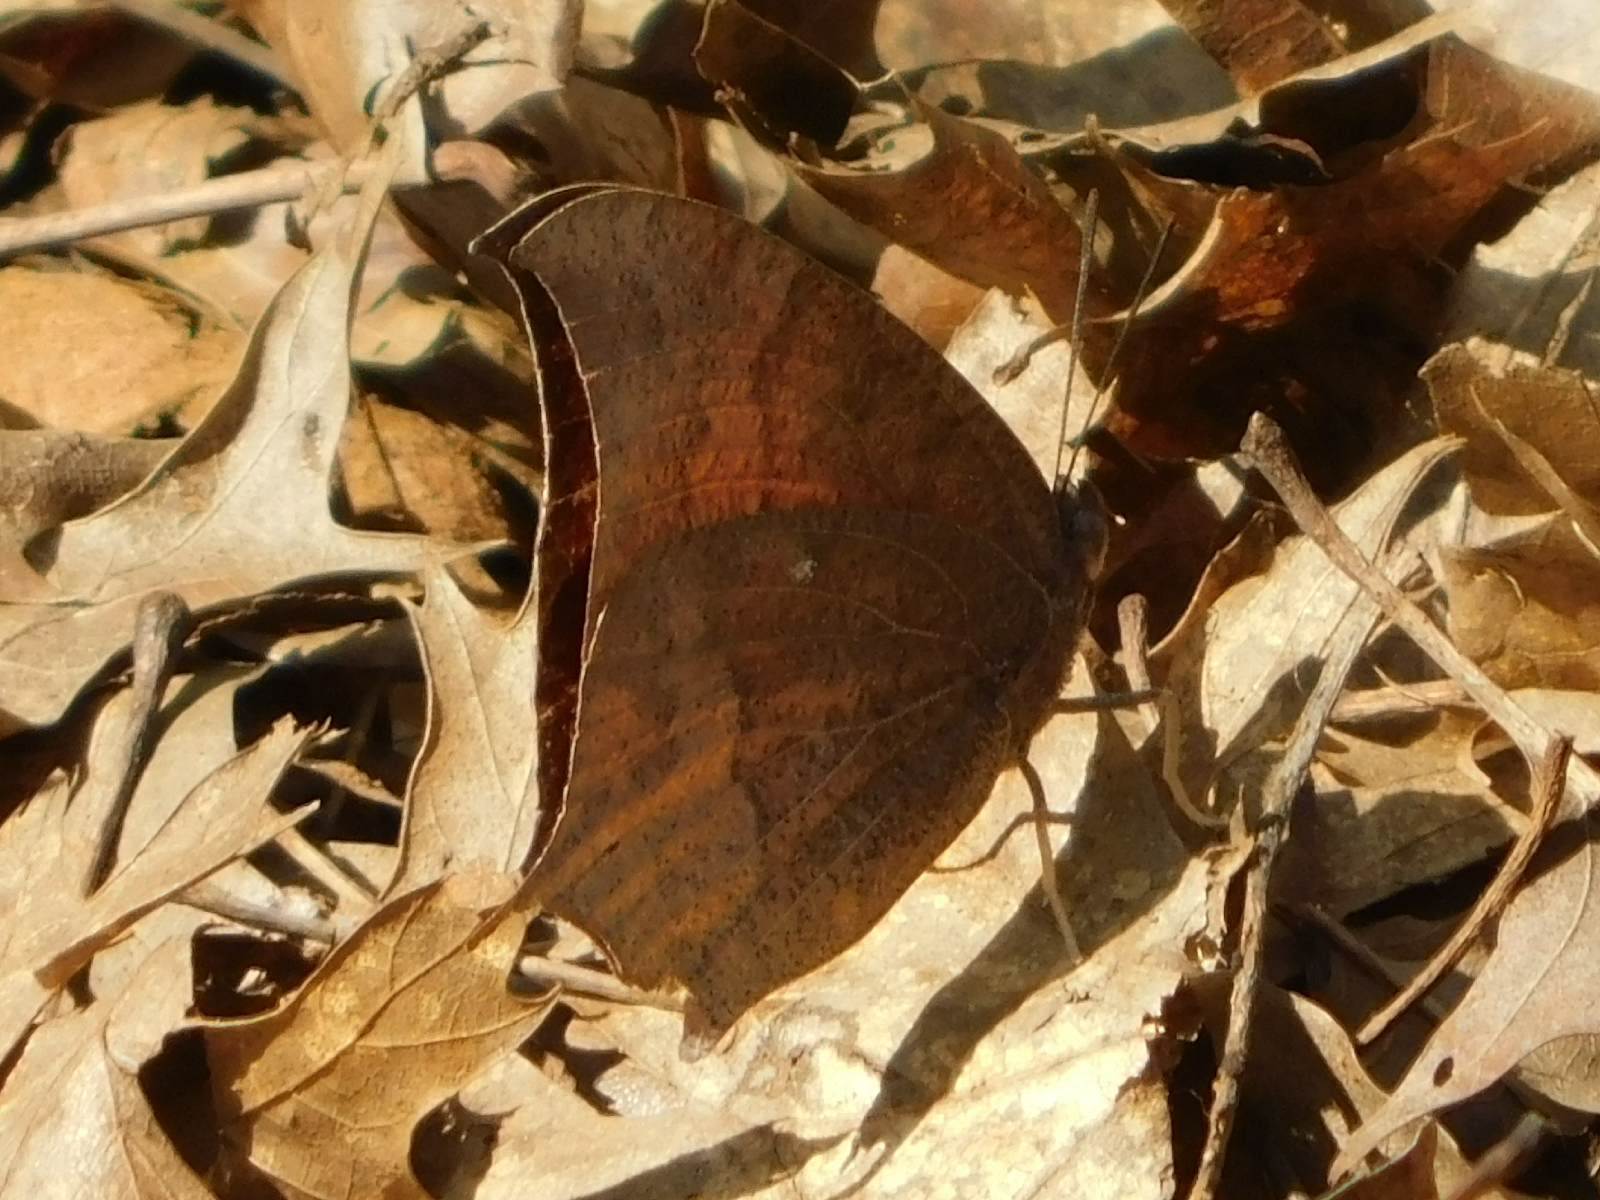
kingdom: Animalia
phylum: Arthropoda
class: Insecta
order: Lepidoptera
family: Nymphalidae
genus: Anaea
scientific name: Anaea andria
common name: Goatweed leafwing
